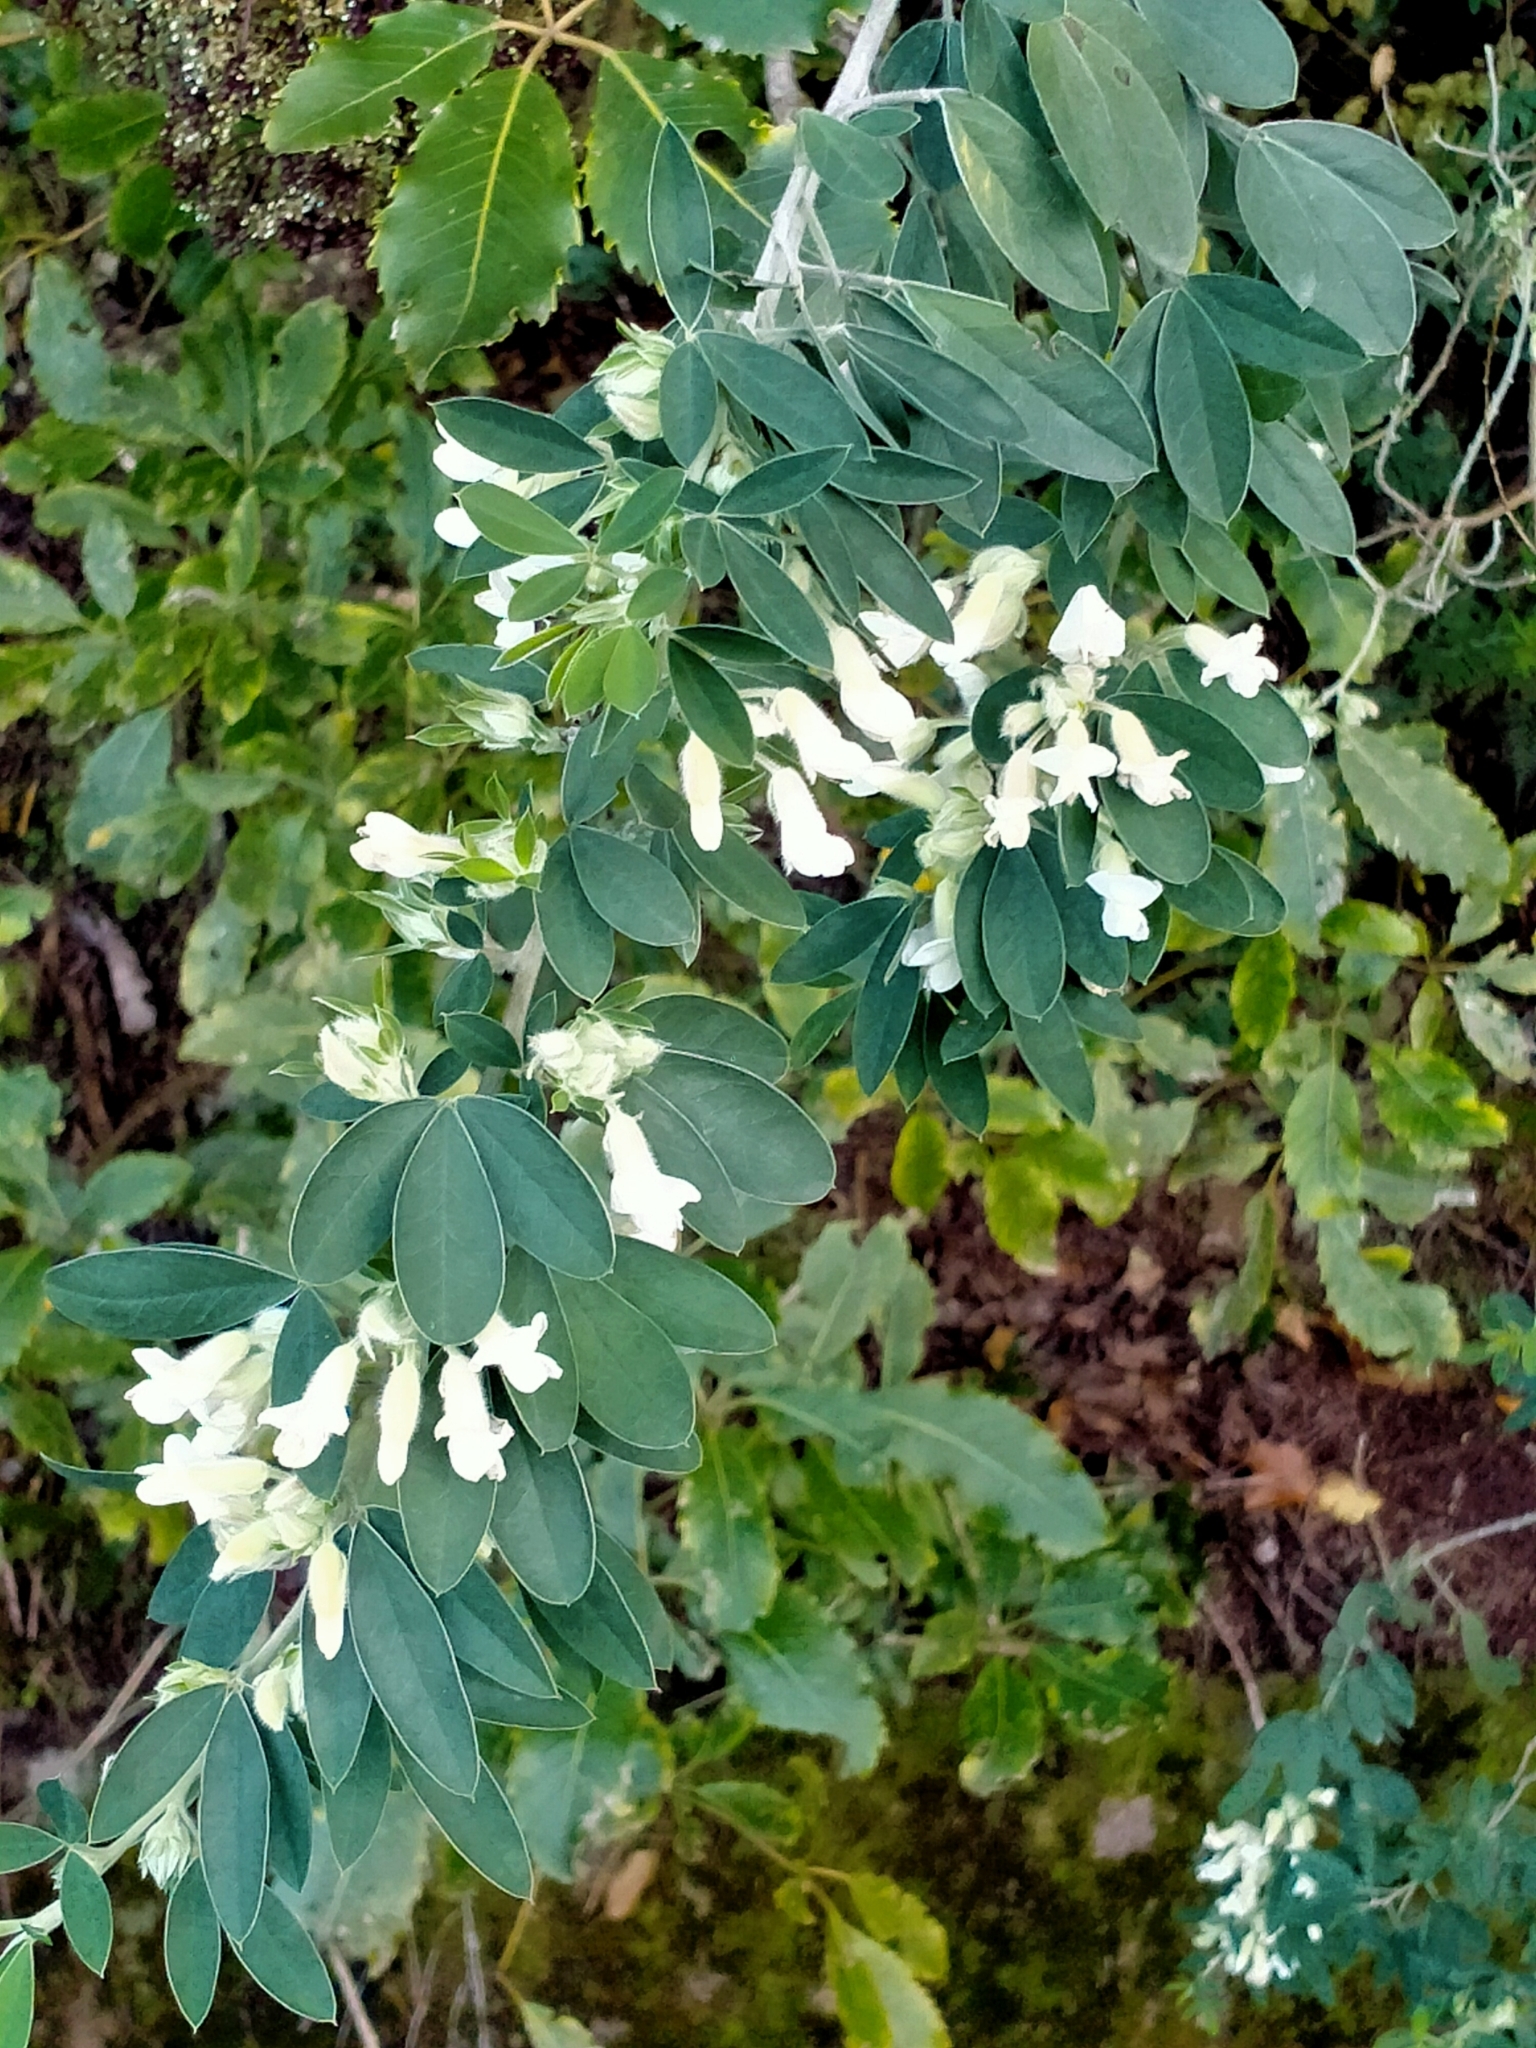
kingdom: Plantae
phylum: Tracheophyta
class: Magnoliopsida
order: Fabales
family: Fabaceae
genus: Chamaecytisus
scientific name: Chamaecytisus prolifer
